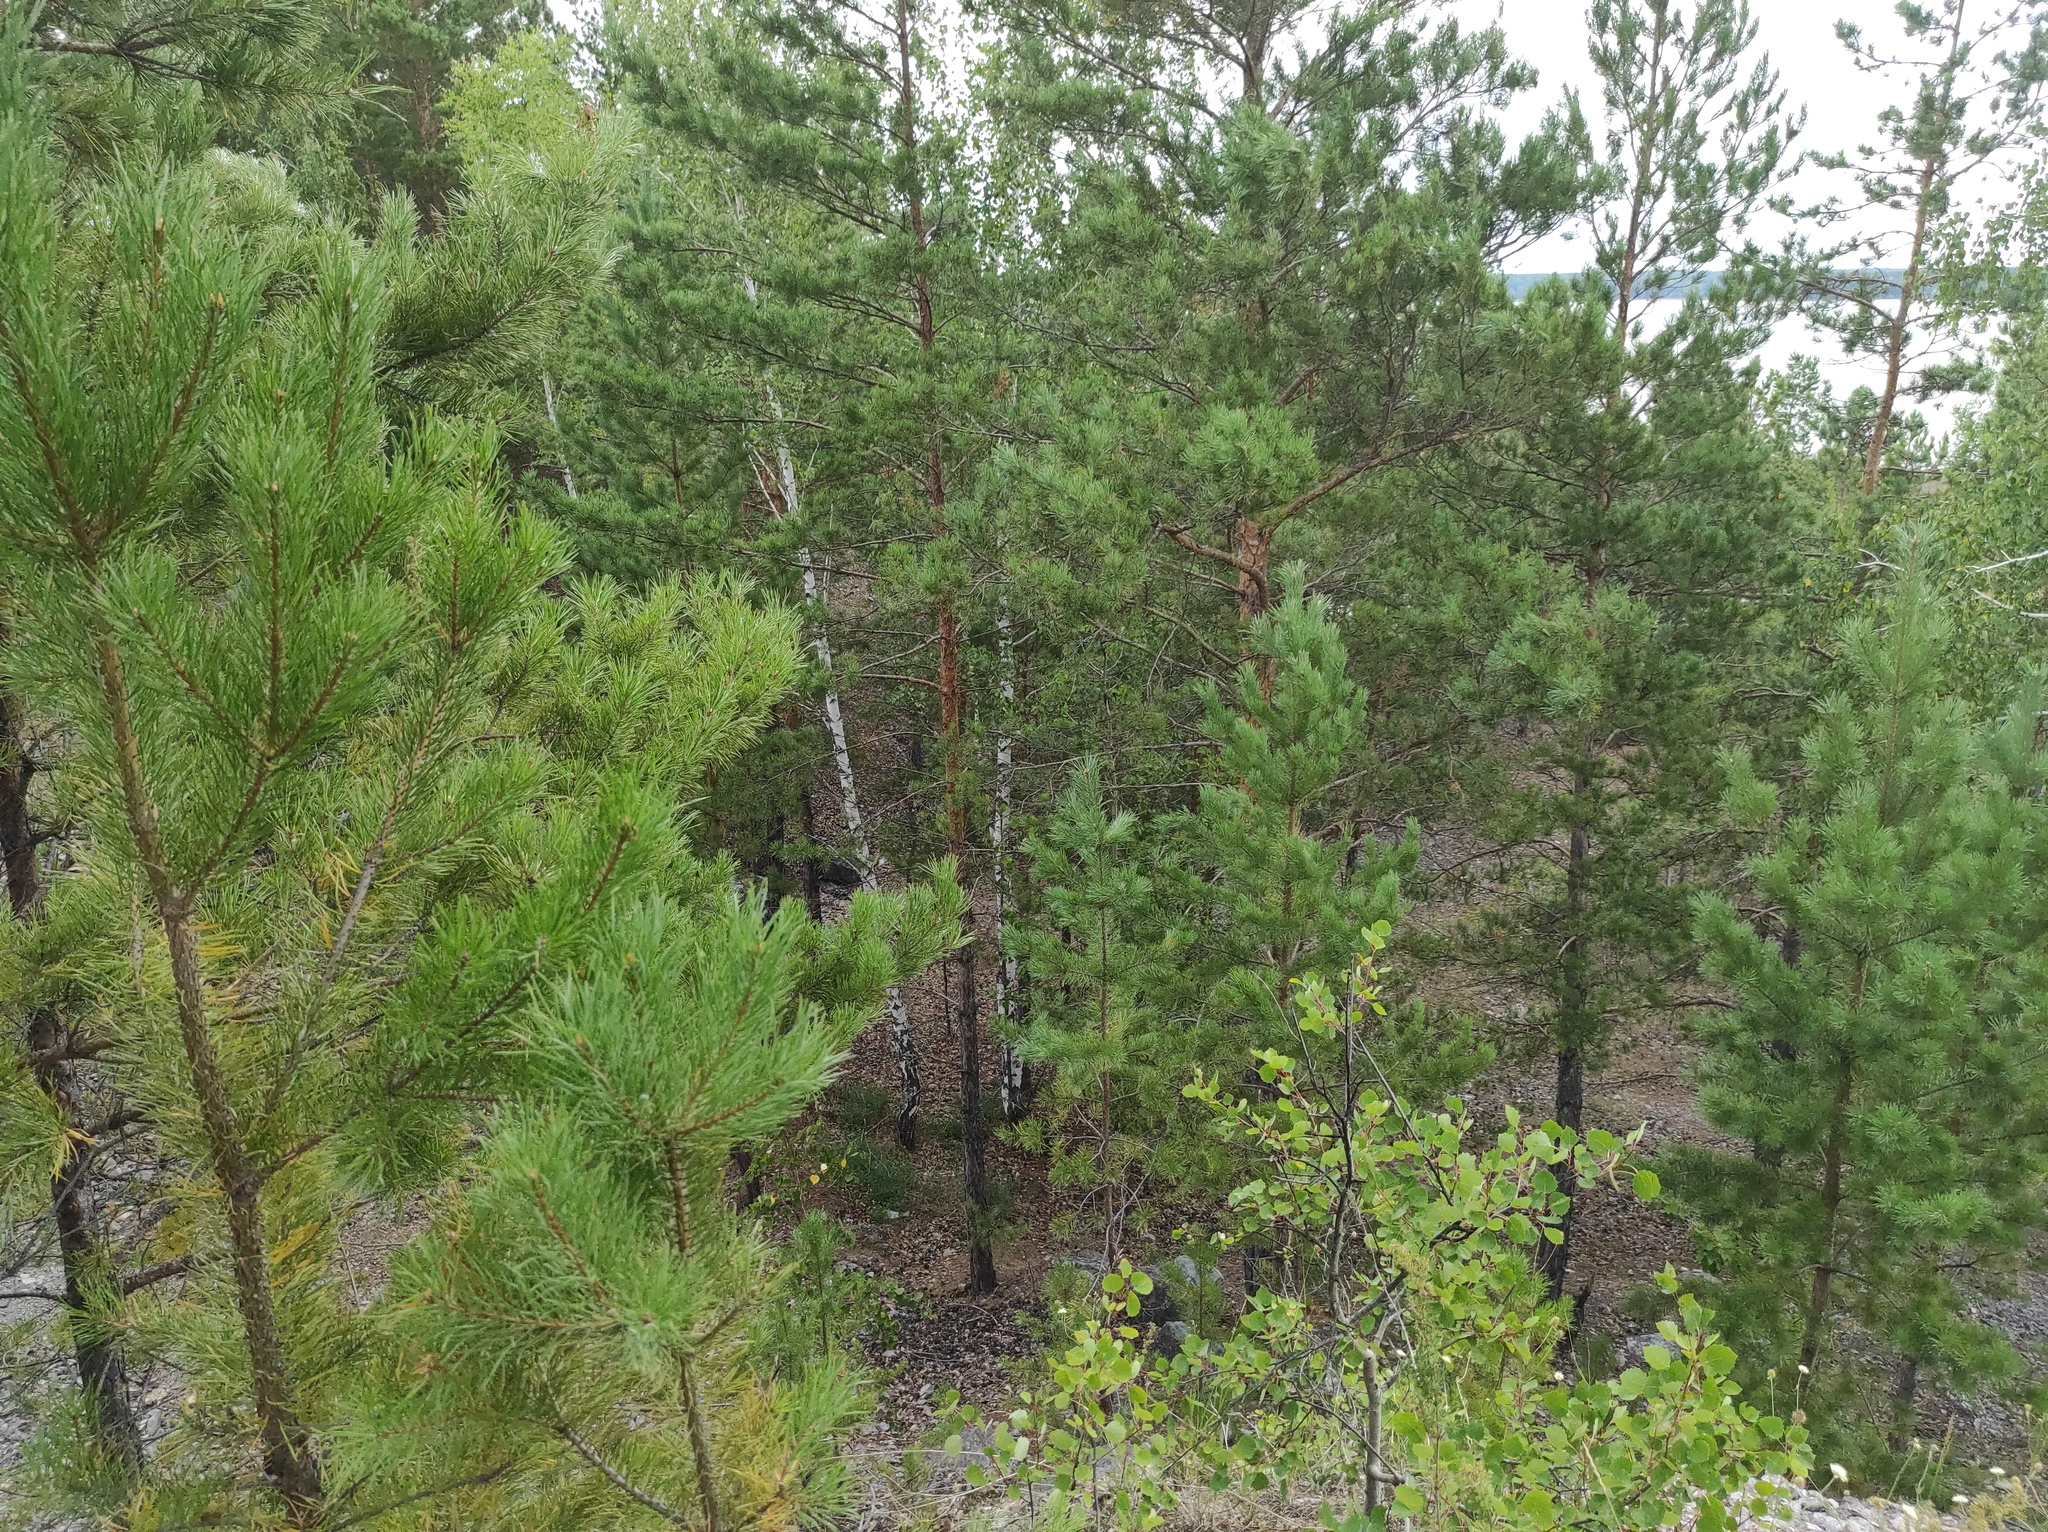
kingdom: Plantae
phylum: Tracheophyta
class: Magnoliopsida
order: Fagales
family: Betulaceae
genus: Betula
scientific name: Betula pendula
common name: Silver birch
